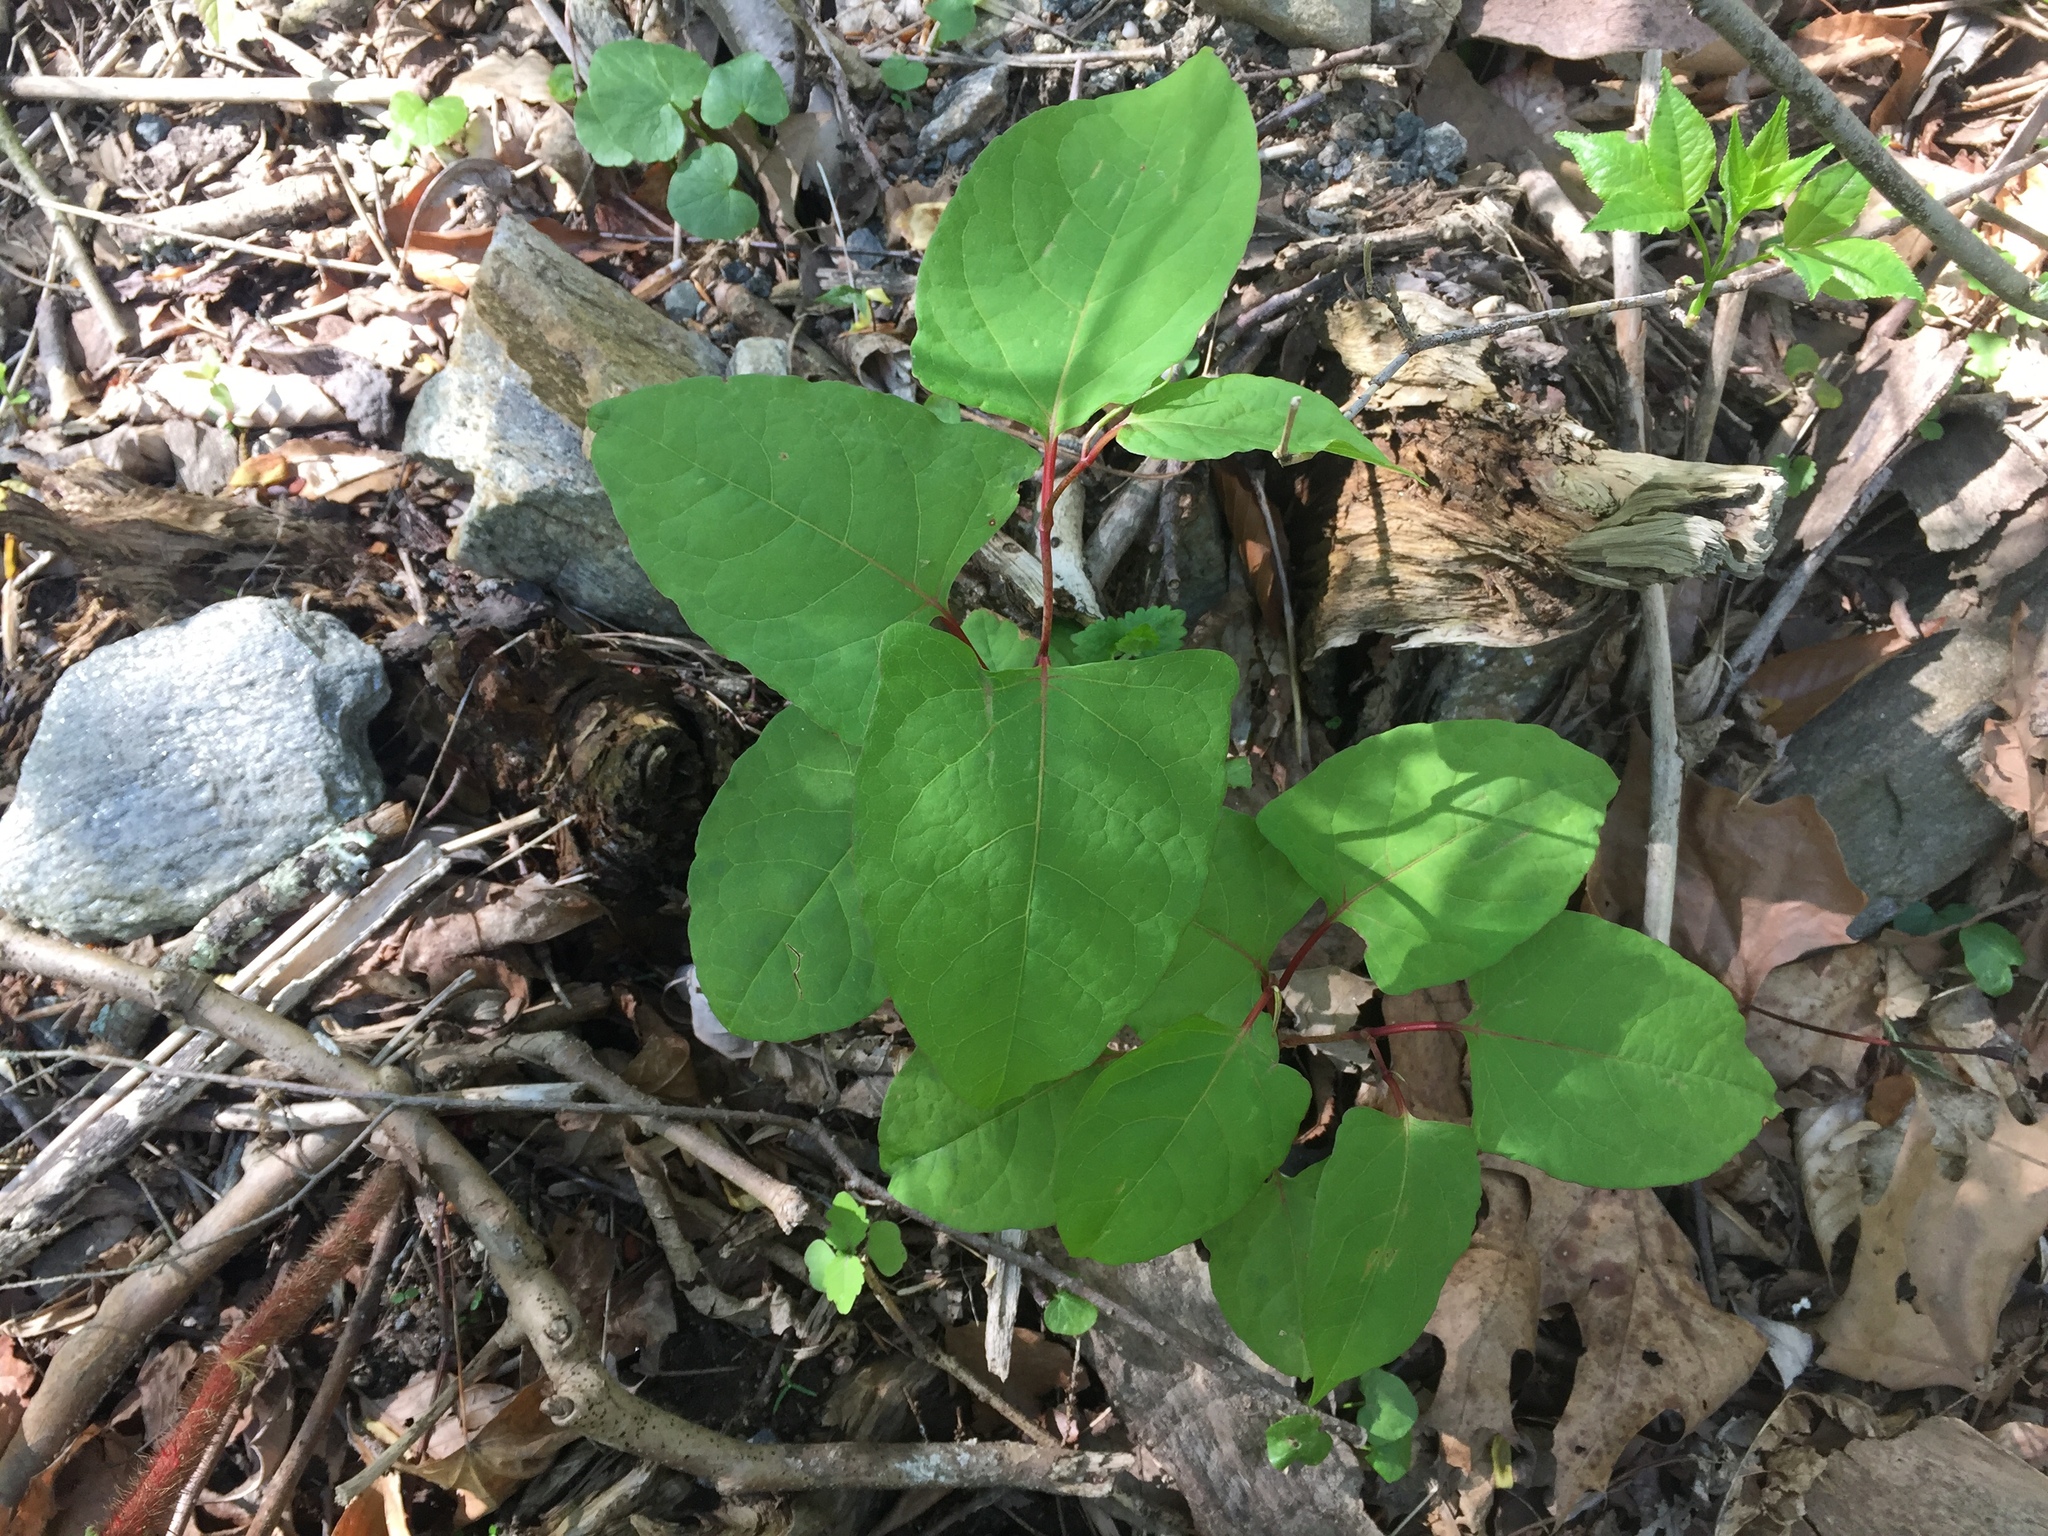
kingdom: Plantae
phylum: Tracheophyta
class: Magnoliopsida
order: Caryophyllales
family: Polygonaceae
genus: Reynoutria
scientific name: Reynoutria japonica
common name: Japanese knotweed
